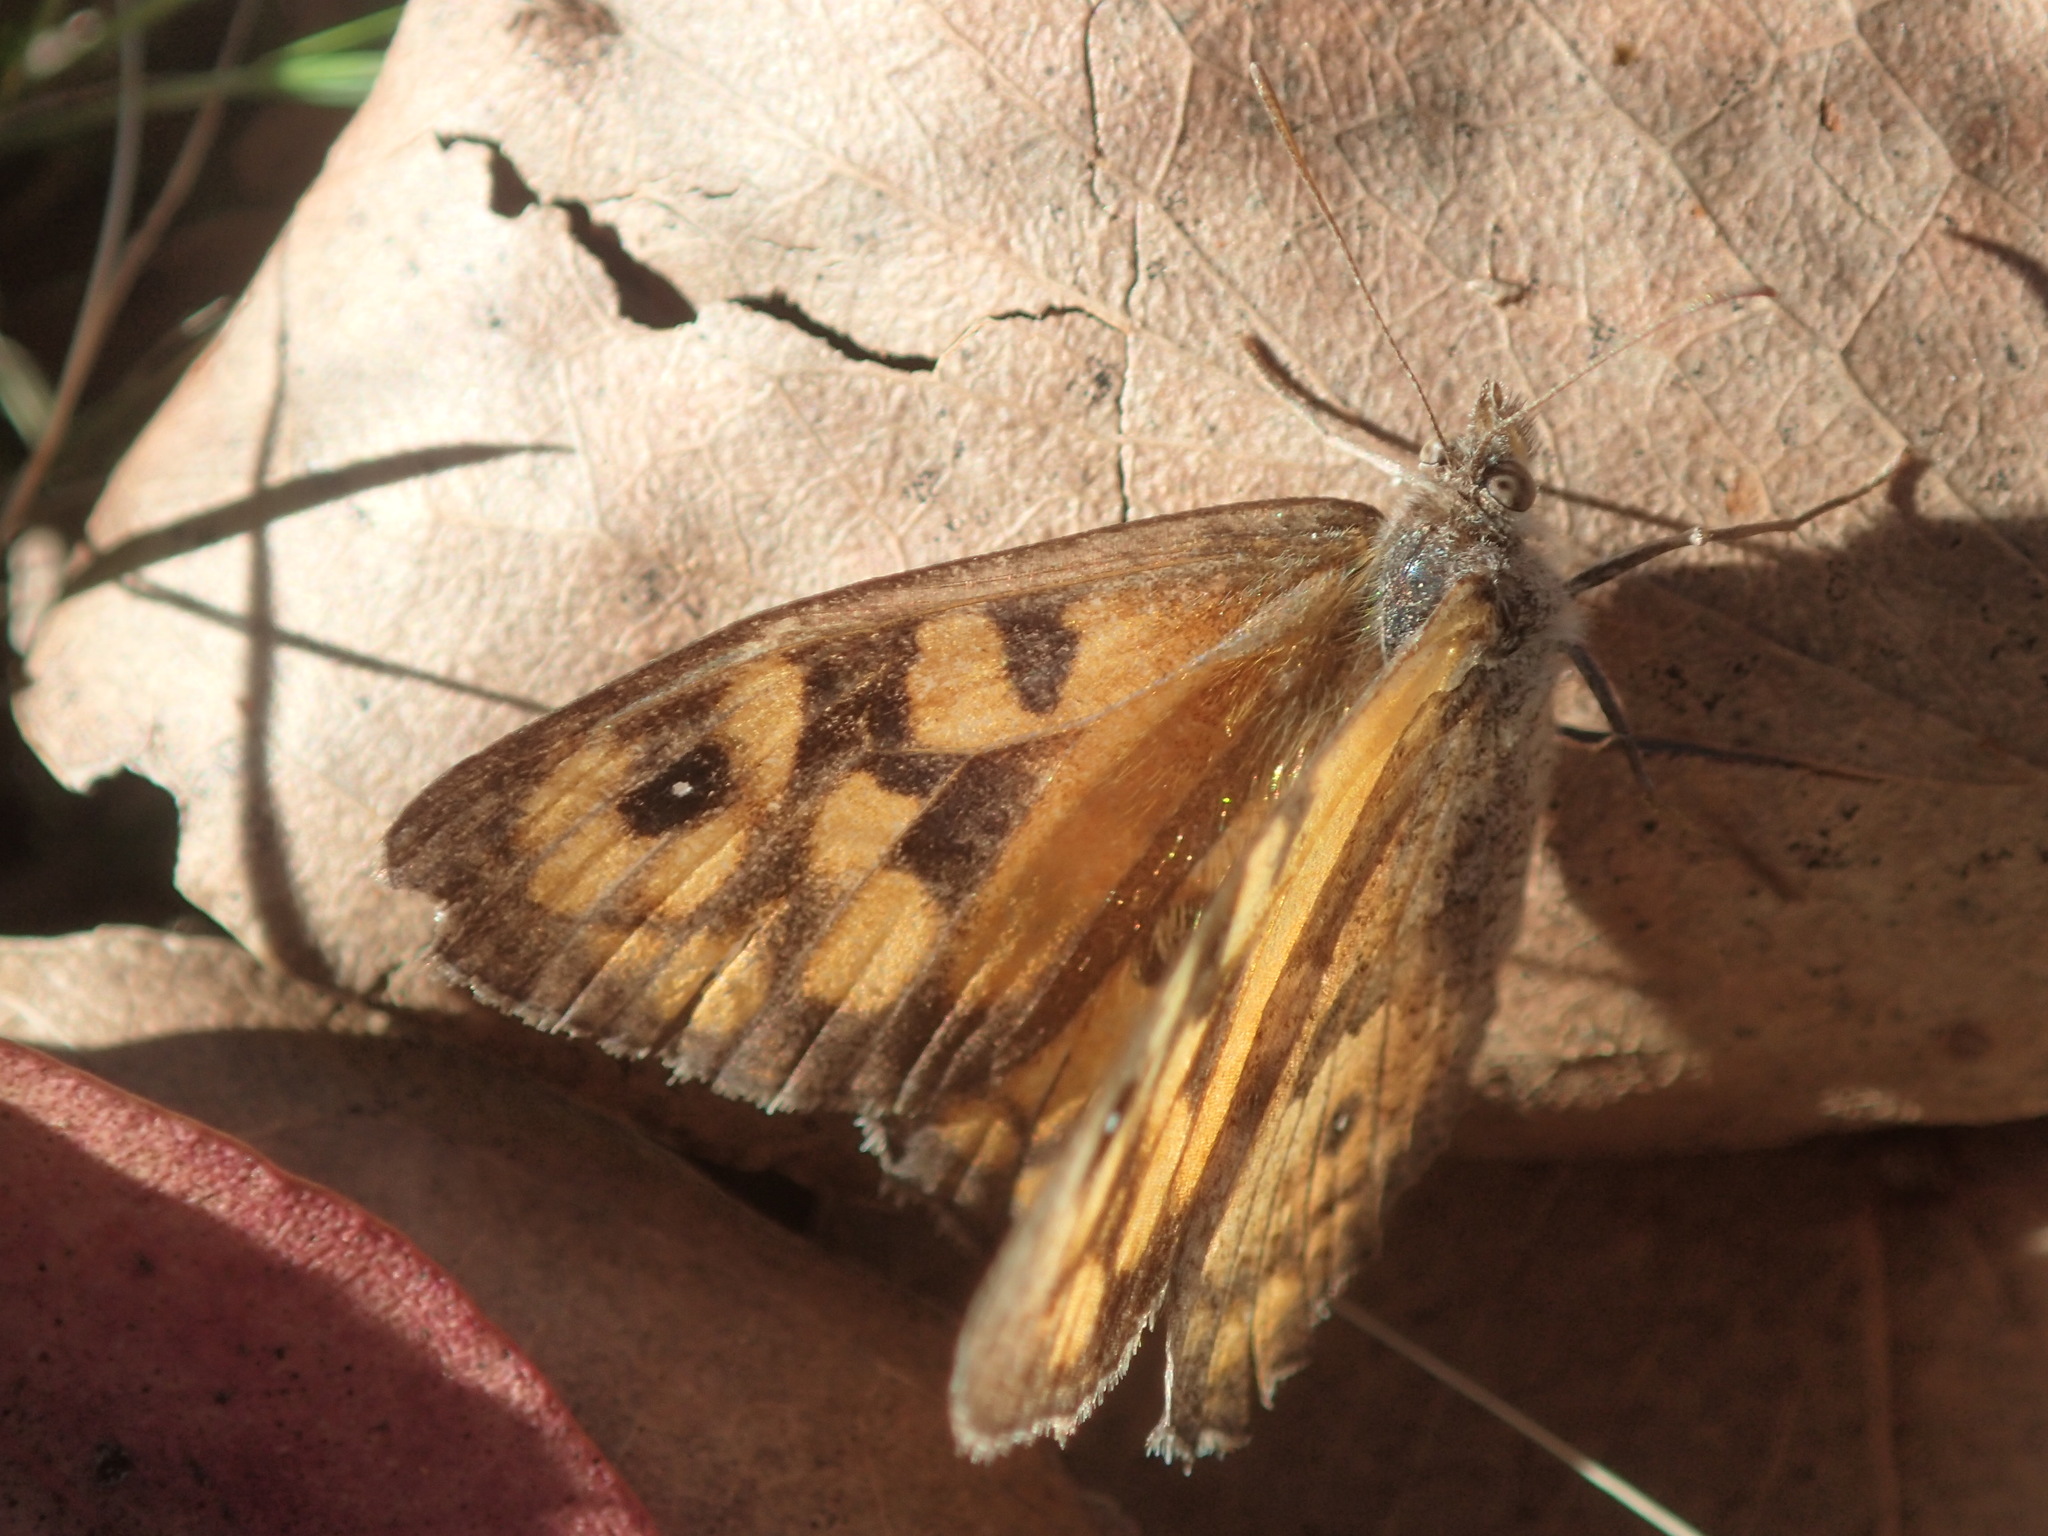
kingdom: Animalia
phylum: Arthropoda
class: Insecta
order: Lepidoptera
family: Nymphalidae
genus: Geitoneura
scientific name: Geitoneura klugii
